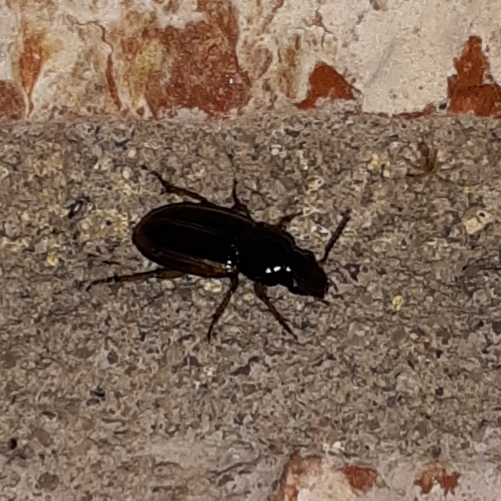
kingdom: Animalia
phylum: Arthropoda
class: Insecta
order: Coleoptera
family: Carabidae
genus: Stenolophus
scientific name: Stenolophus infuscatus
